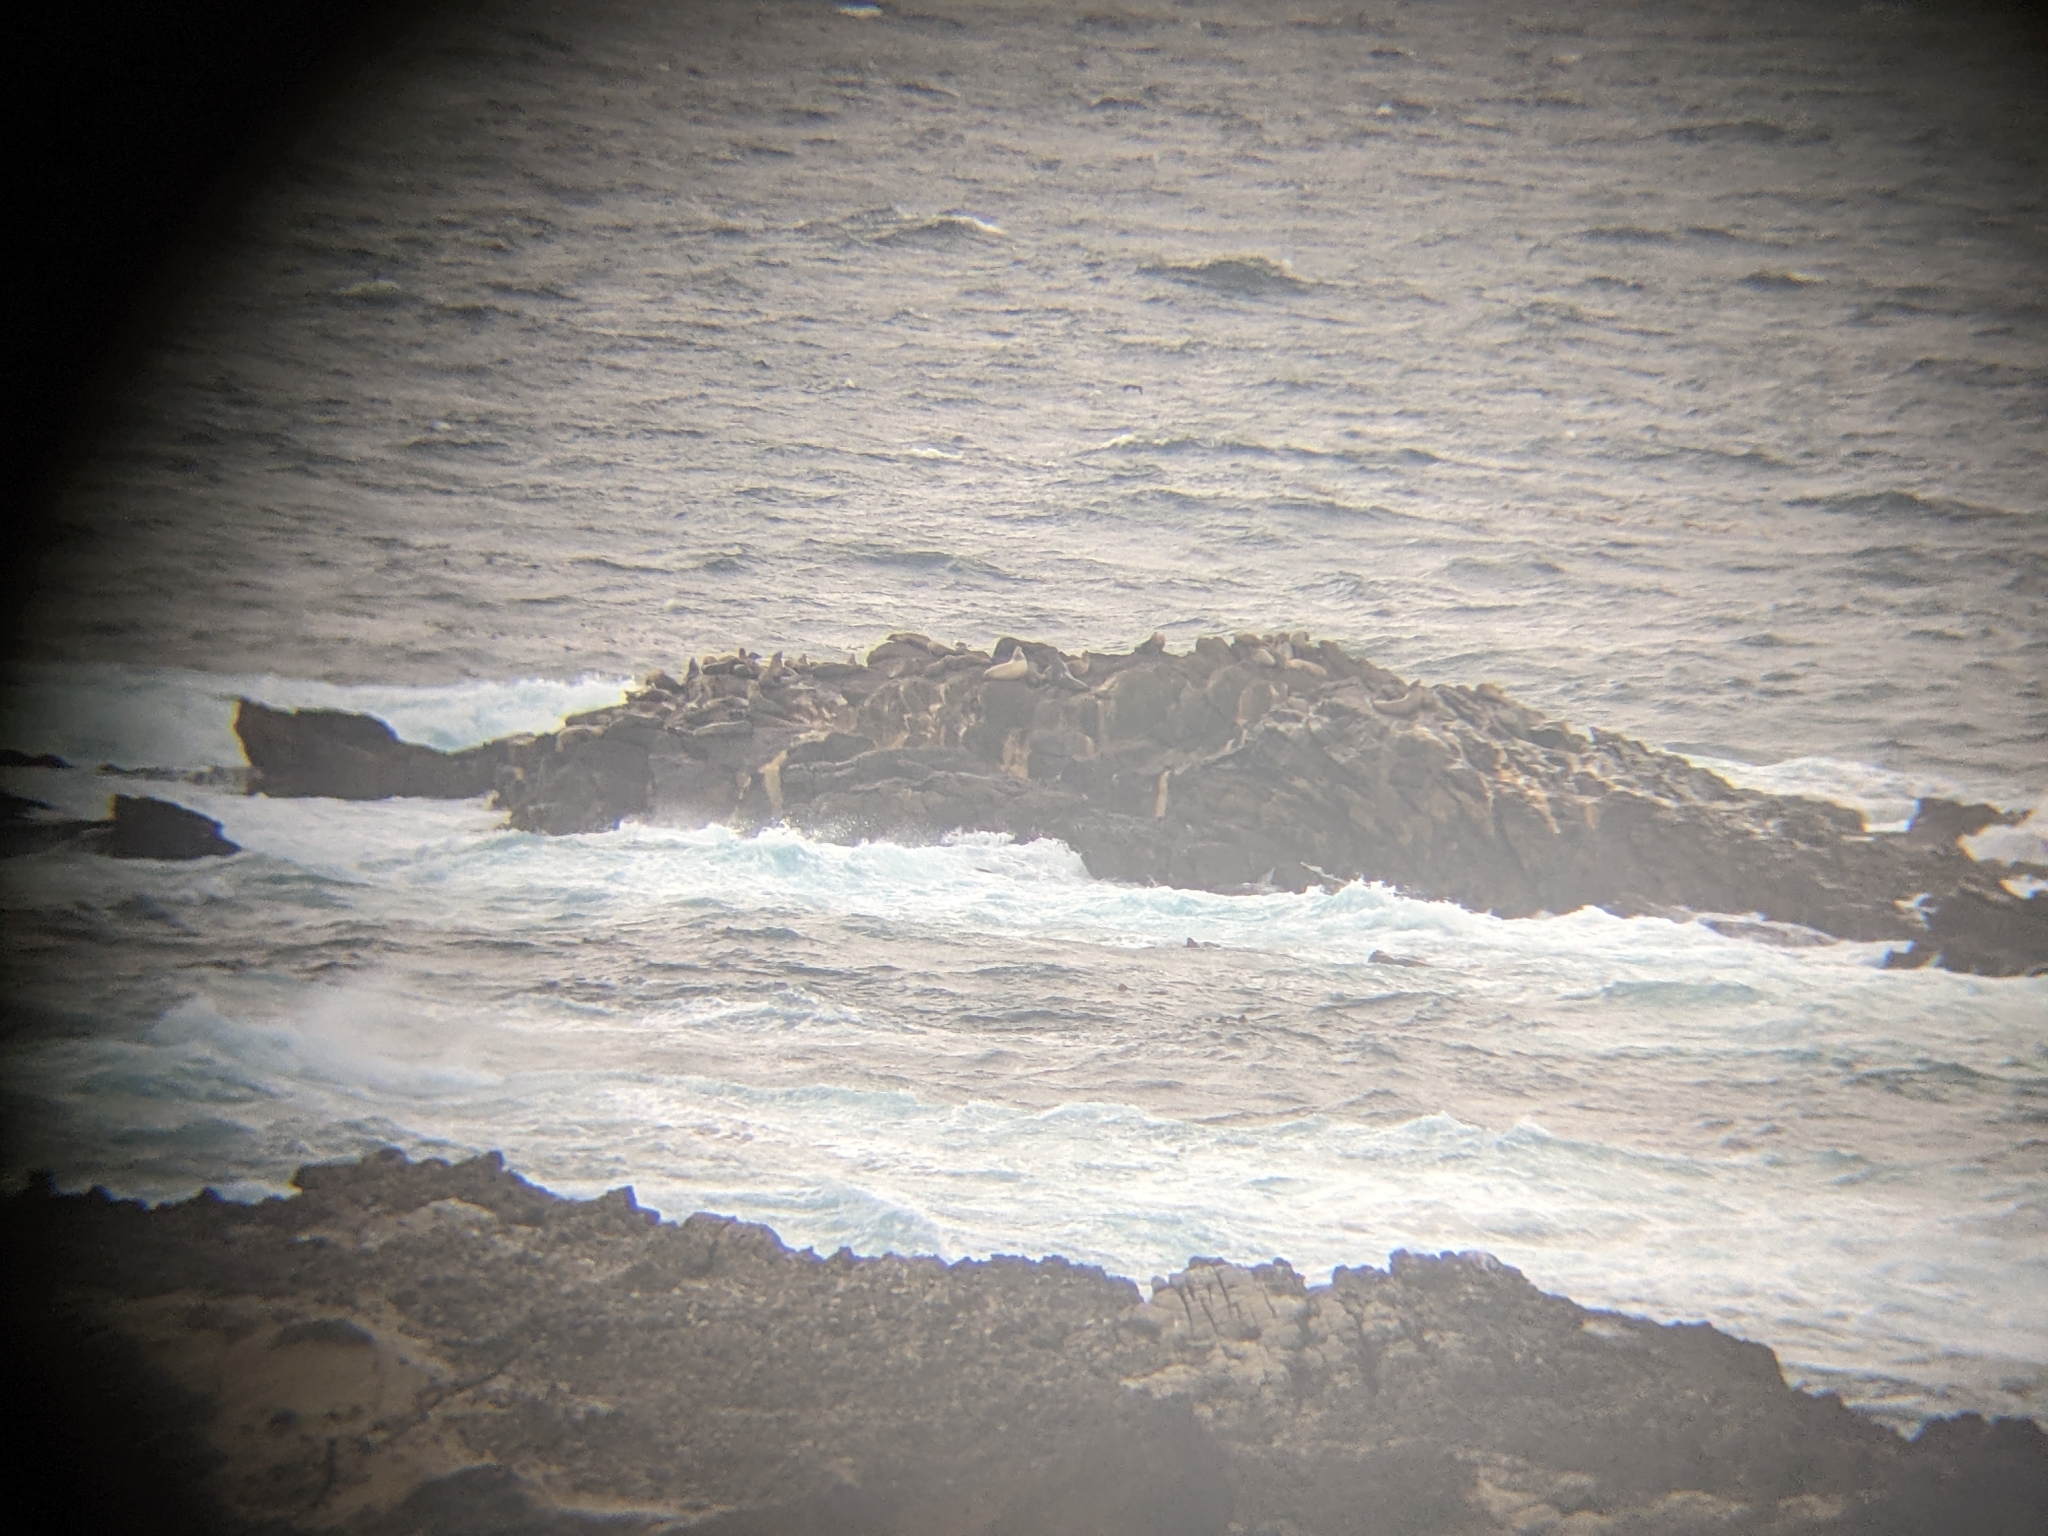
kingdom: Animalia
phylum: Chordata
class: Mammalia
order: Carnivora
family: Otariidae
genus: Zalophus
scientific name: Zalophus californianus
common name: California sea lion
